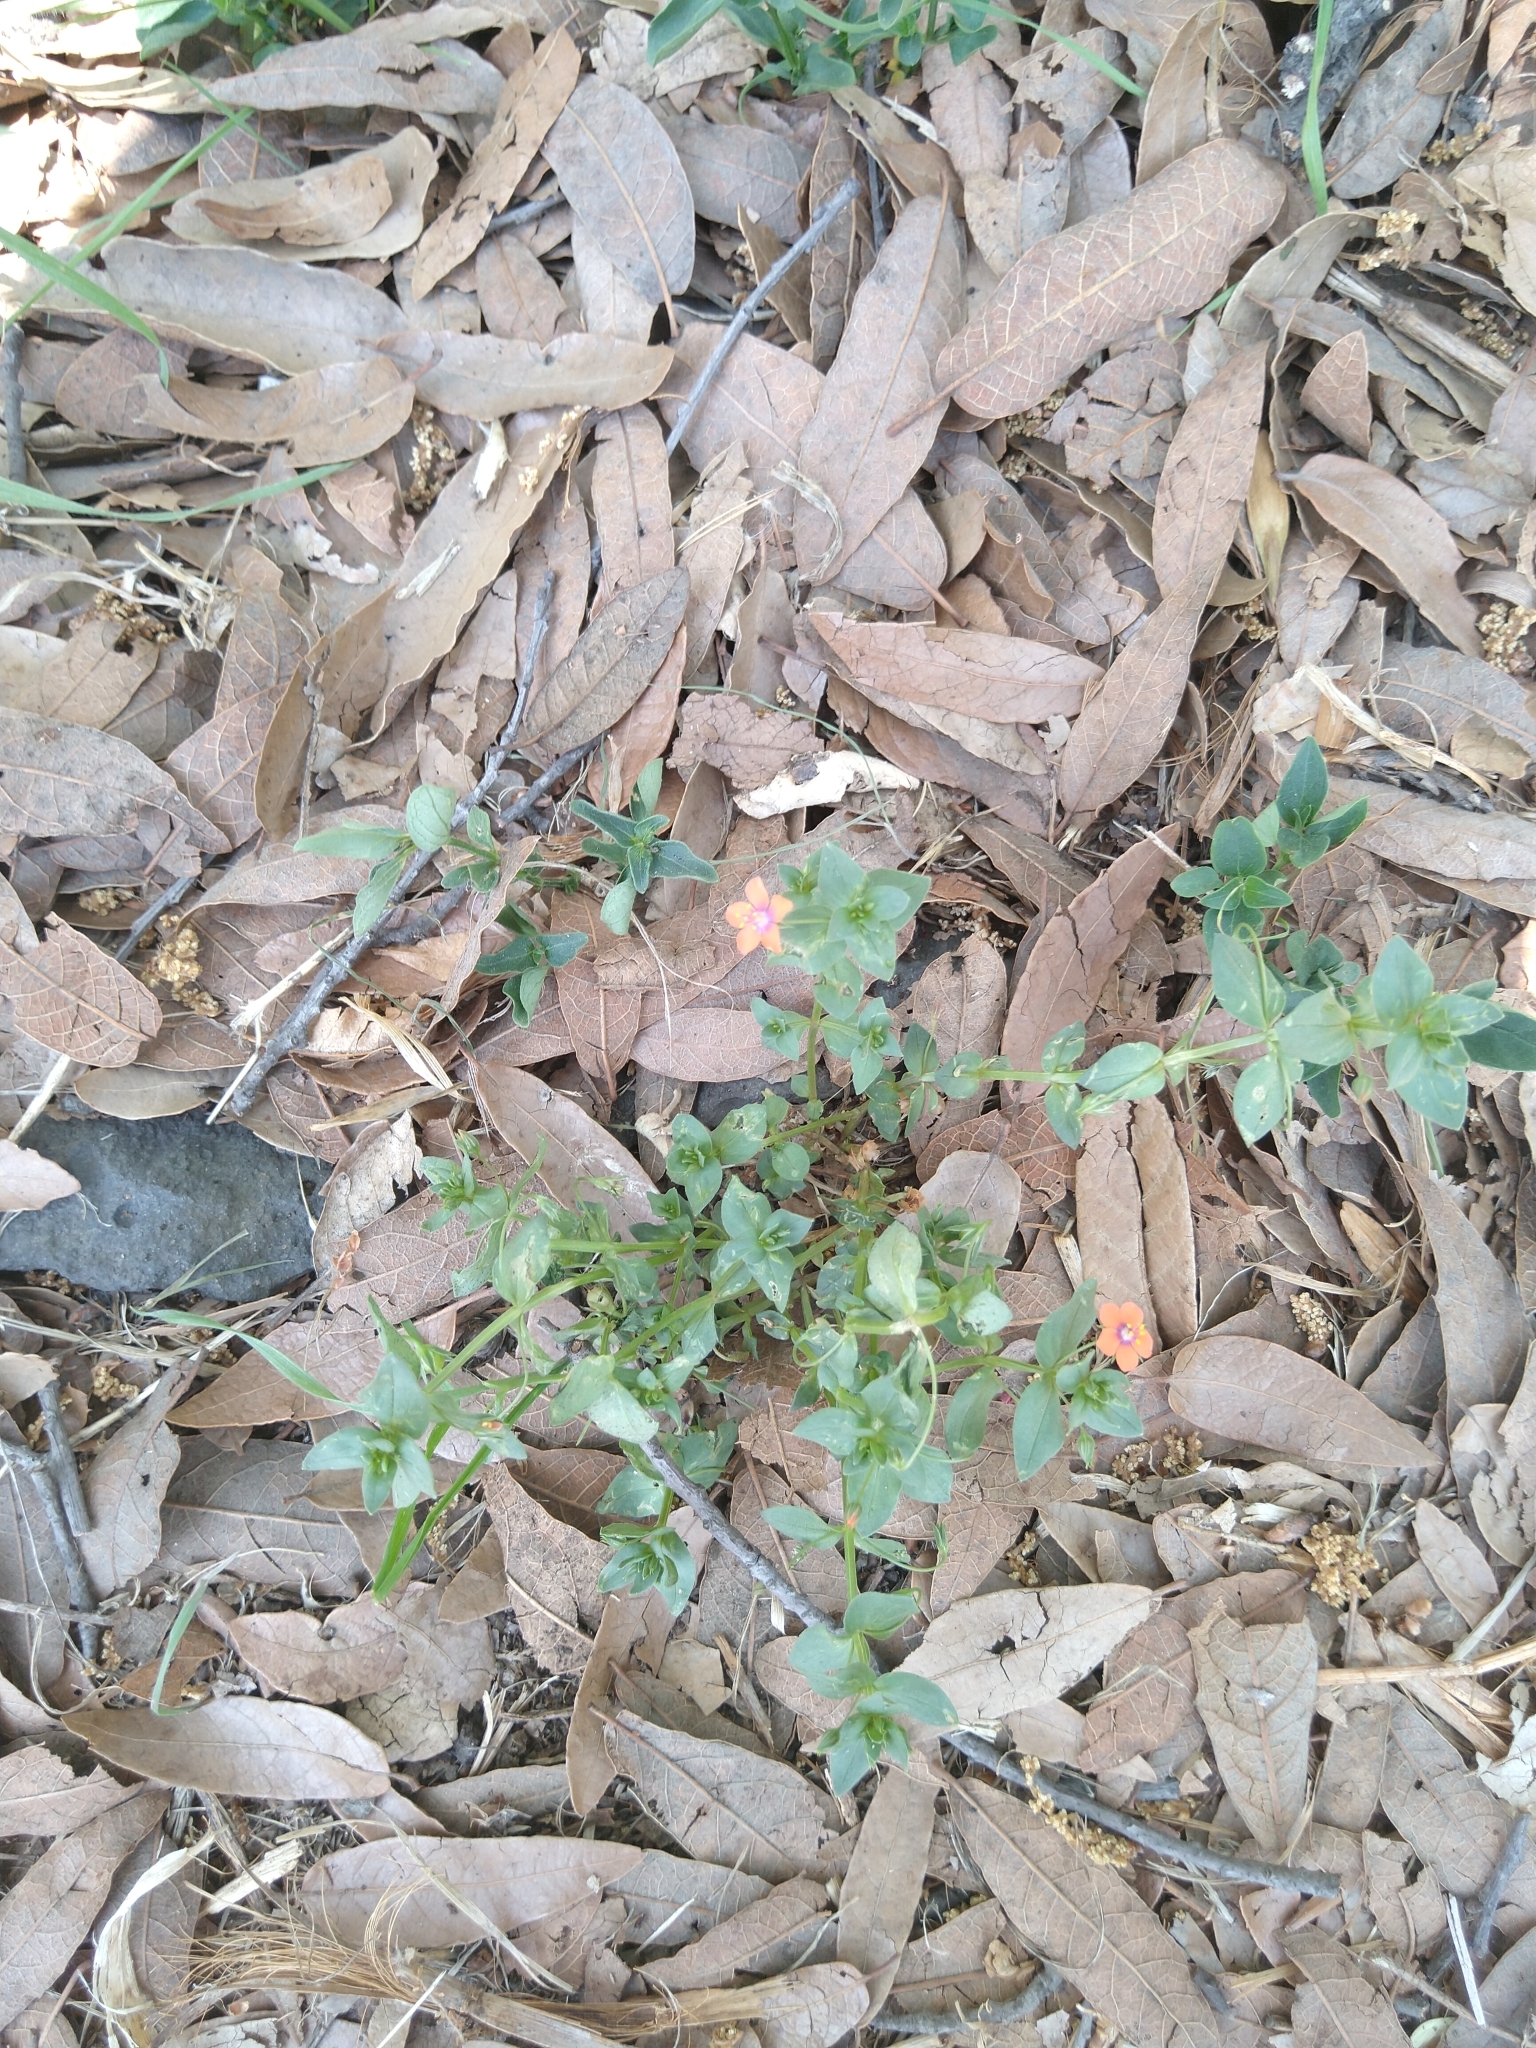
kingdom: Plantae
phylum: Tracheophyta
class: Magnoliopsida
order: Ericales
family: Primulaceae
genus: Lysimachia
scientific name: Lysimachia arvensis
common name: Scarlet pimpernel
